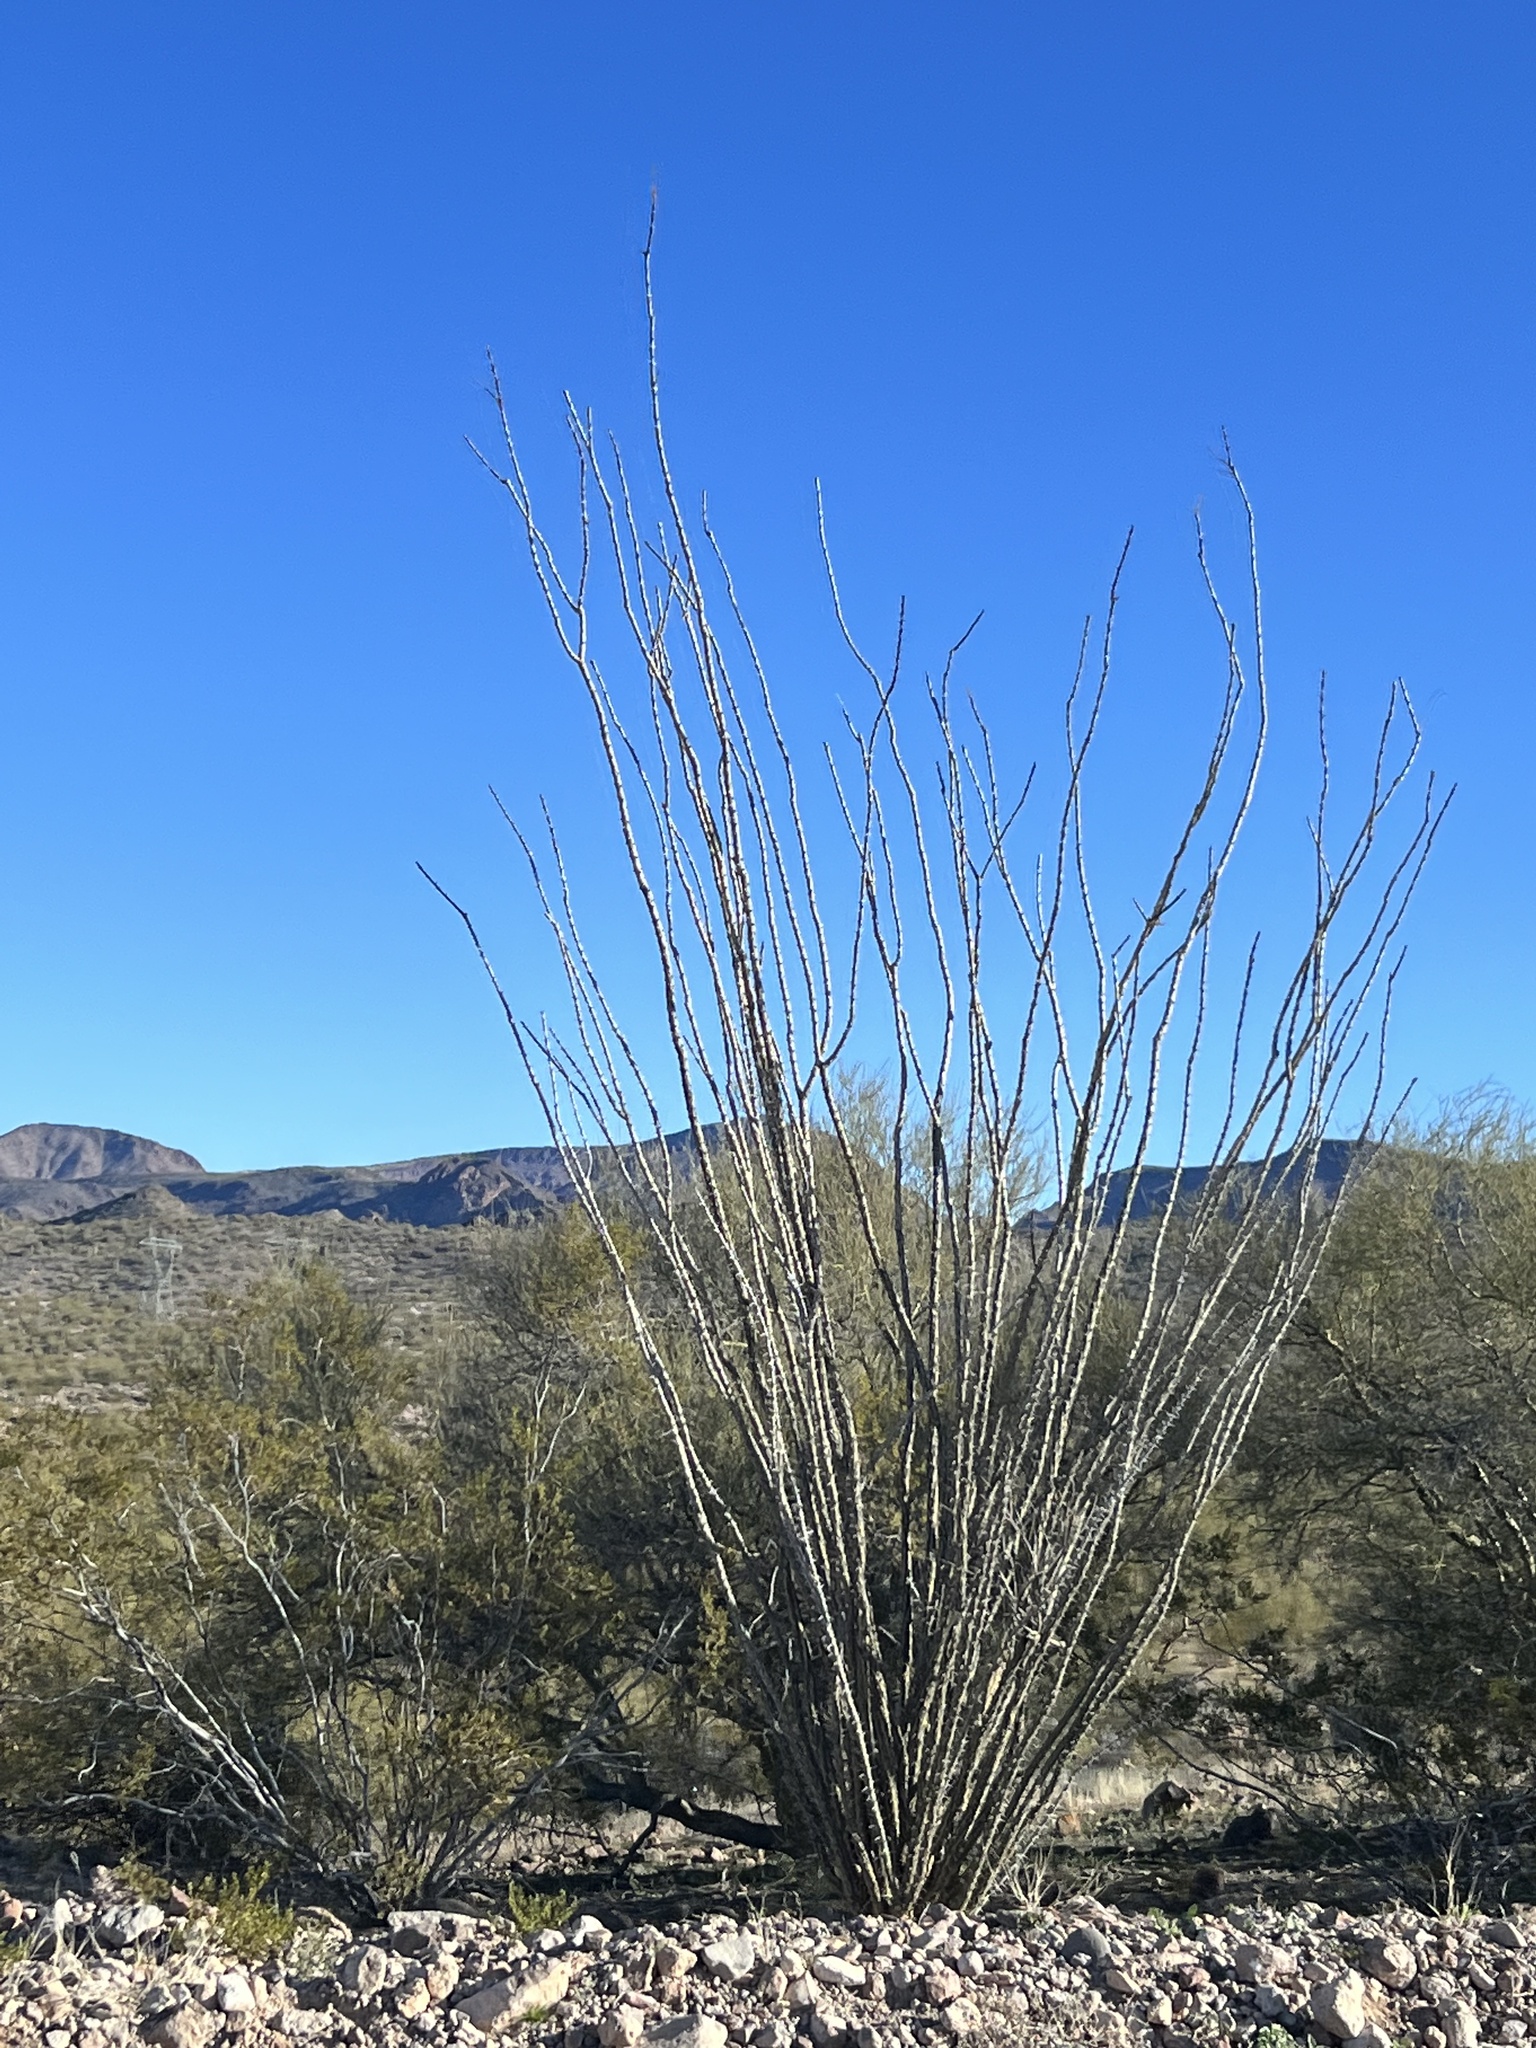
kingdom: Plantae
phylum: Tracheophyta
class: Magnoliopsida
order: Ericales
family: Fouquieriaceae
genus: Fouquieria
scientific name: Fouquieria splendens
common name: Vine-cactus
